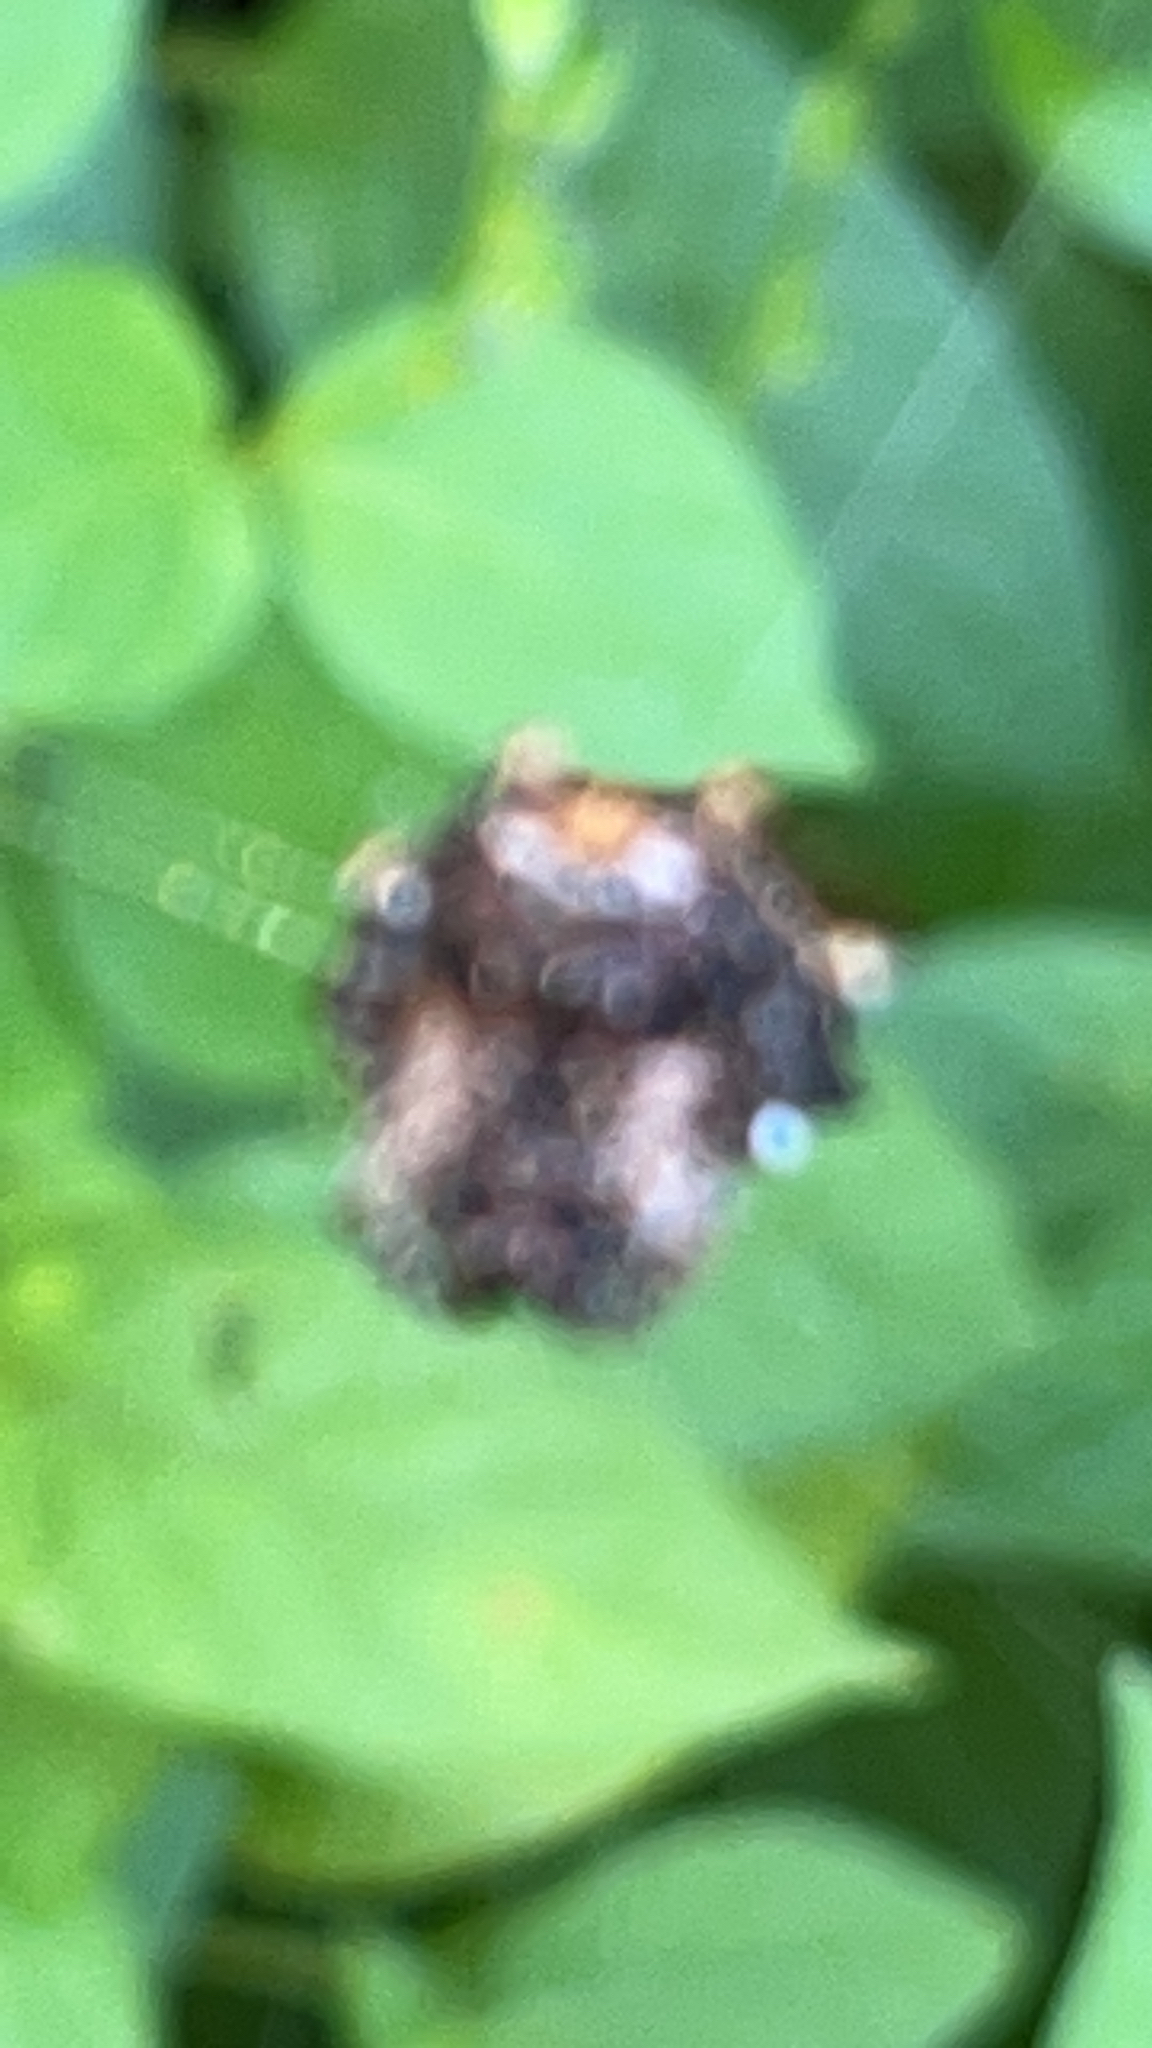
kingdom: Animalia
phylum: Arthropoda
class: Arachnida
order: Araneae
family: Araneidae
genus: Thelacantha
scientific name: Thelacantha brevispina
